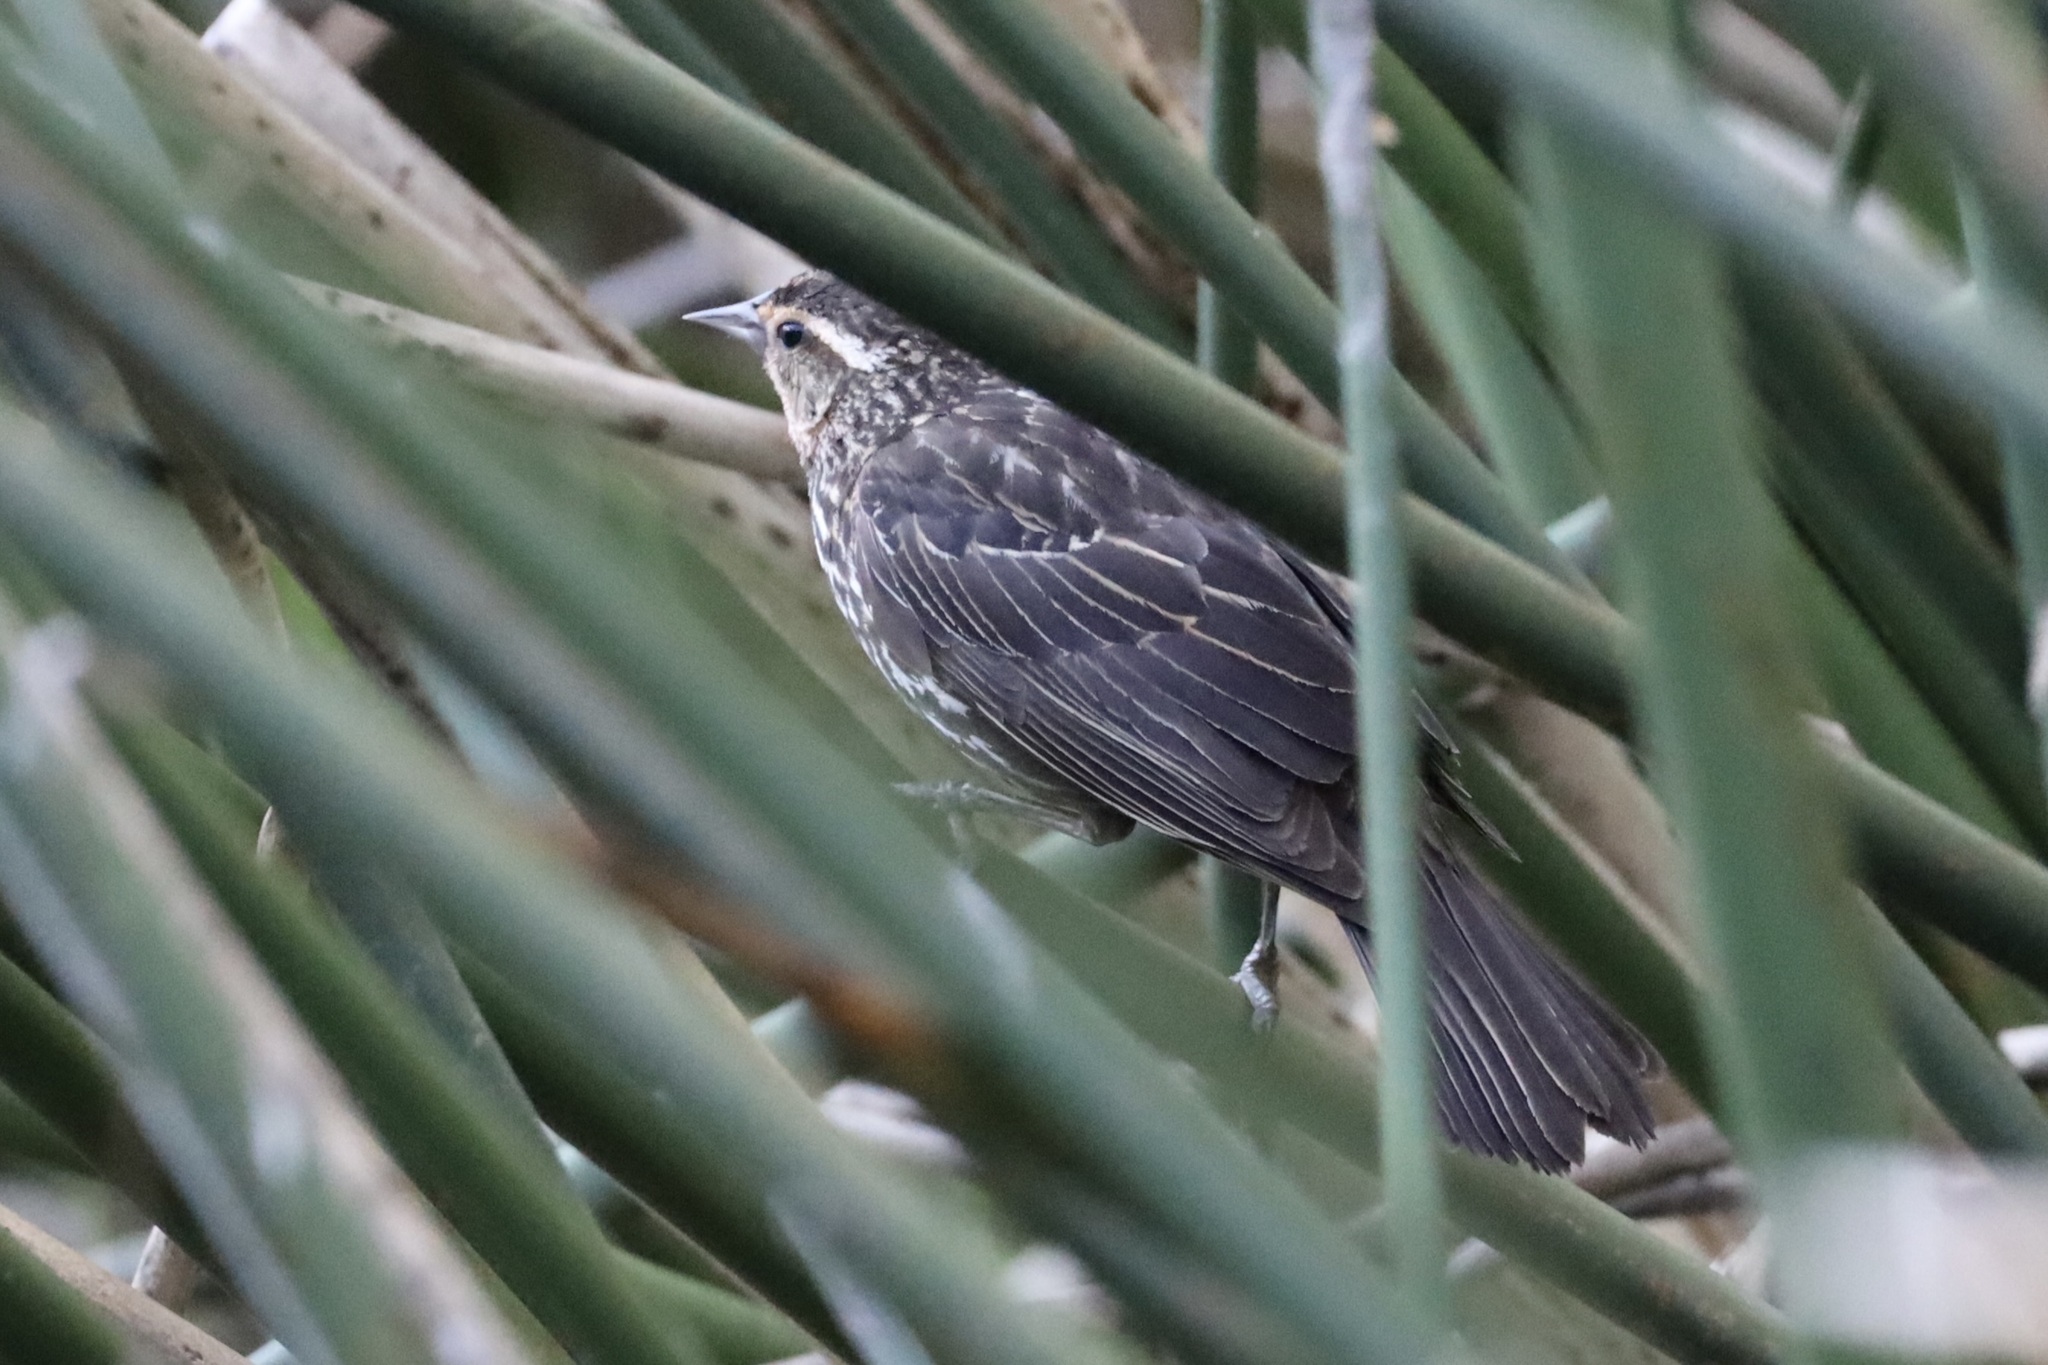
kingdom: Animalia
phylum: Chordata
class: Aves
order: Passeriformes
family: Icteridae
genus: Agelaius
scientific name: Agelaius phoeniceus
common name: Red-winged blackbird
